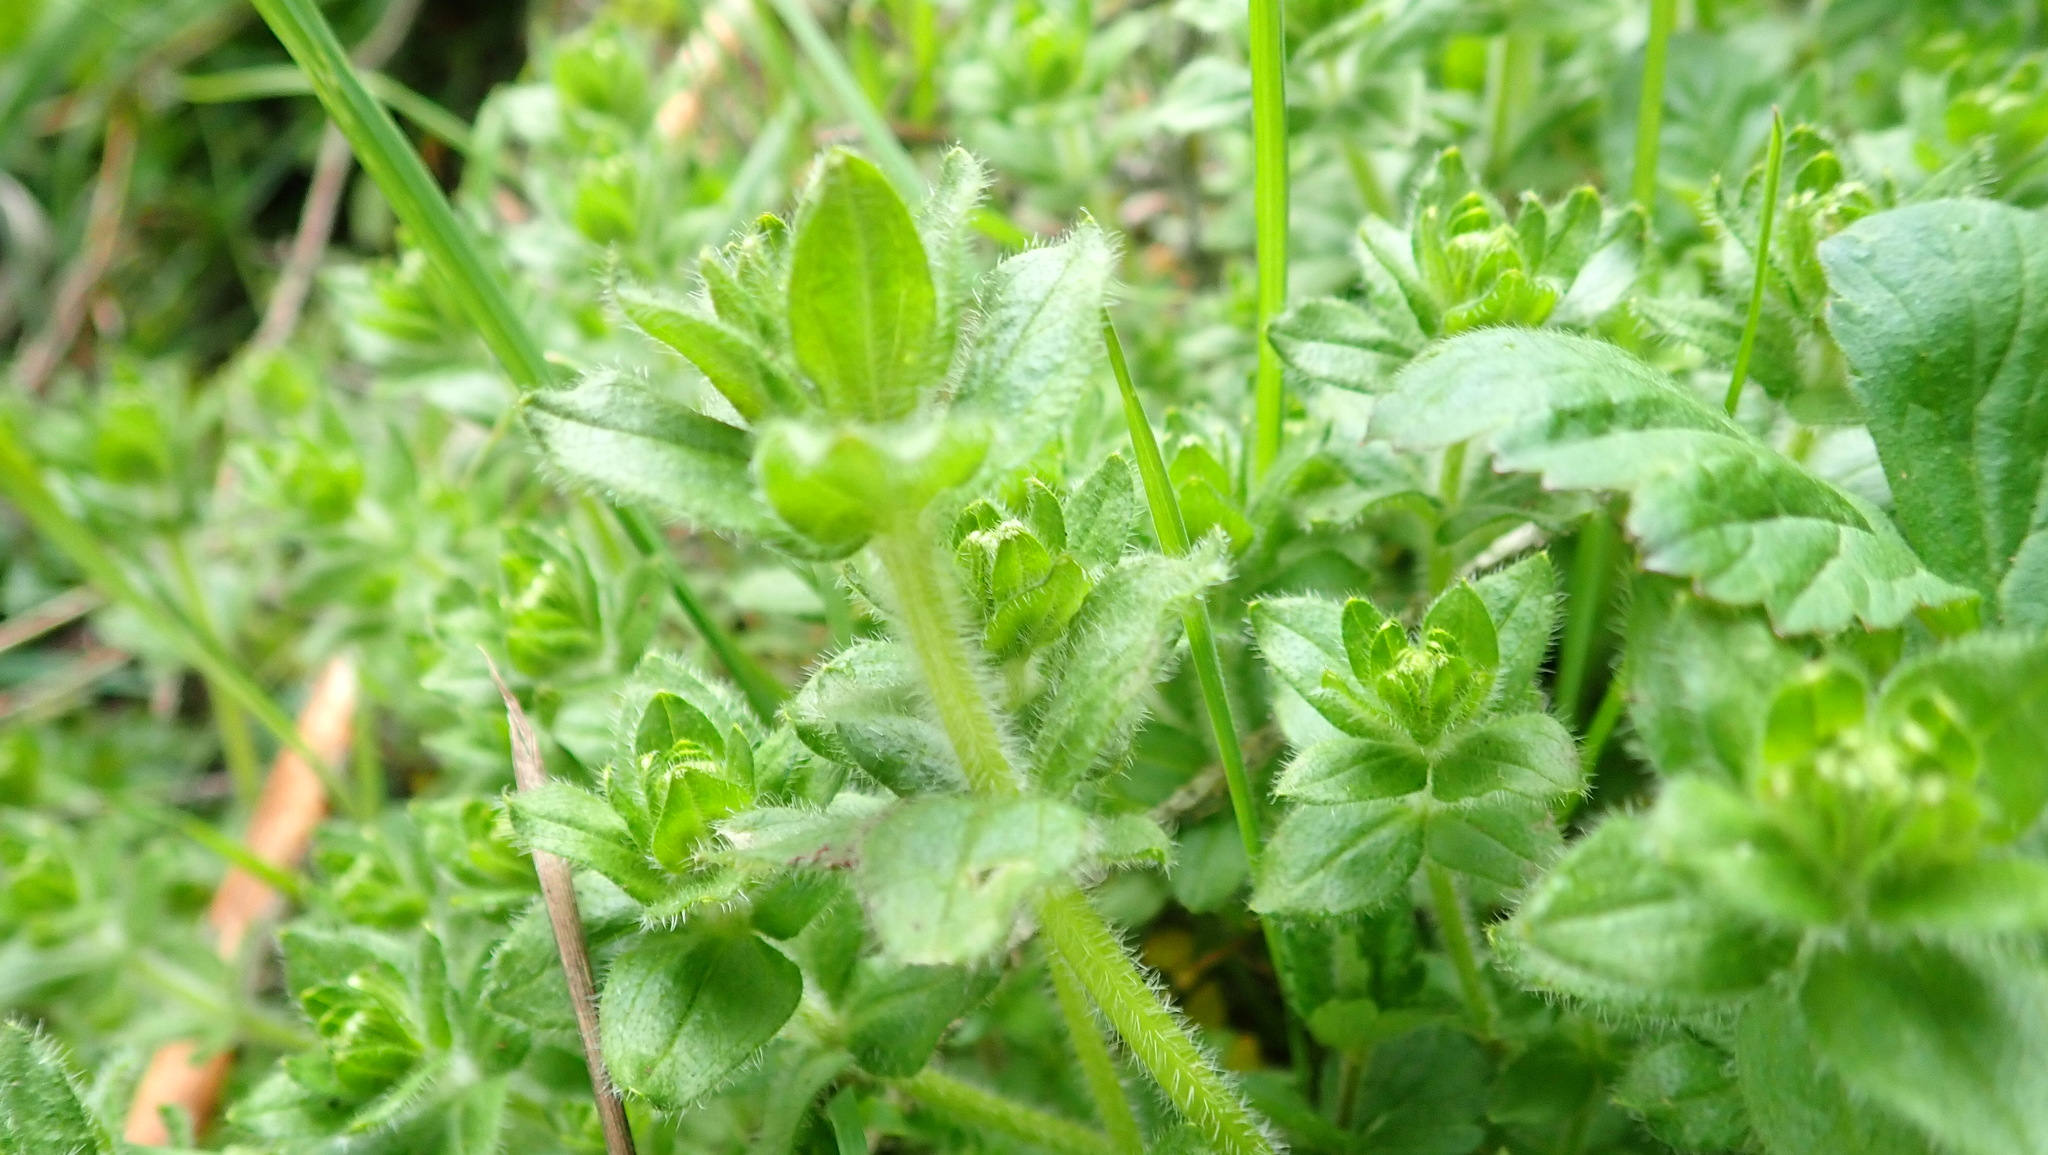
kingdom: Plantae
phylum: Tracheophyta
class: Magnoliopsida
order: Gentianales
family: Rubiaceae
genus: Cruciata
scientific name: Cruciata laevipes
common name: Crosswort
